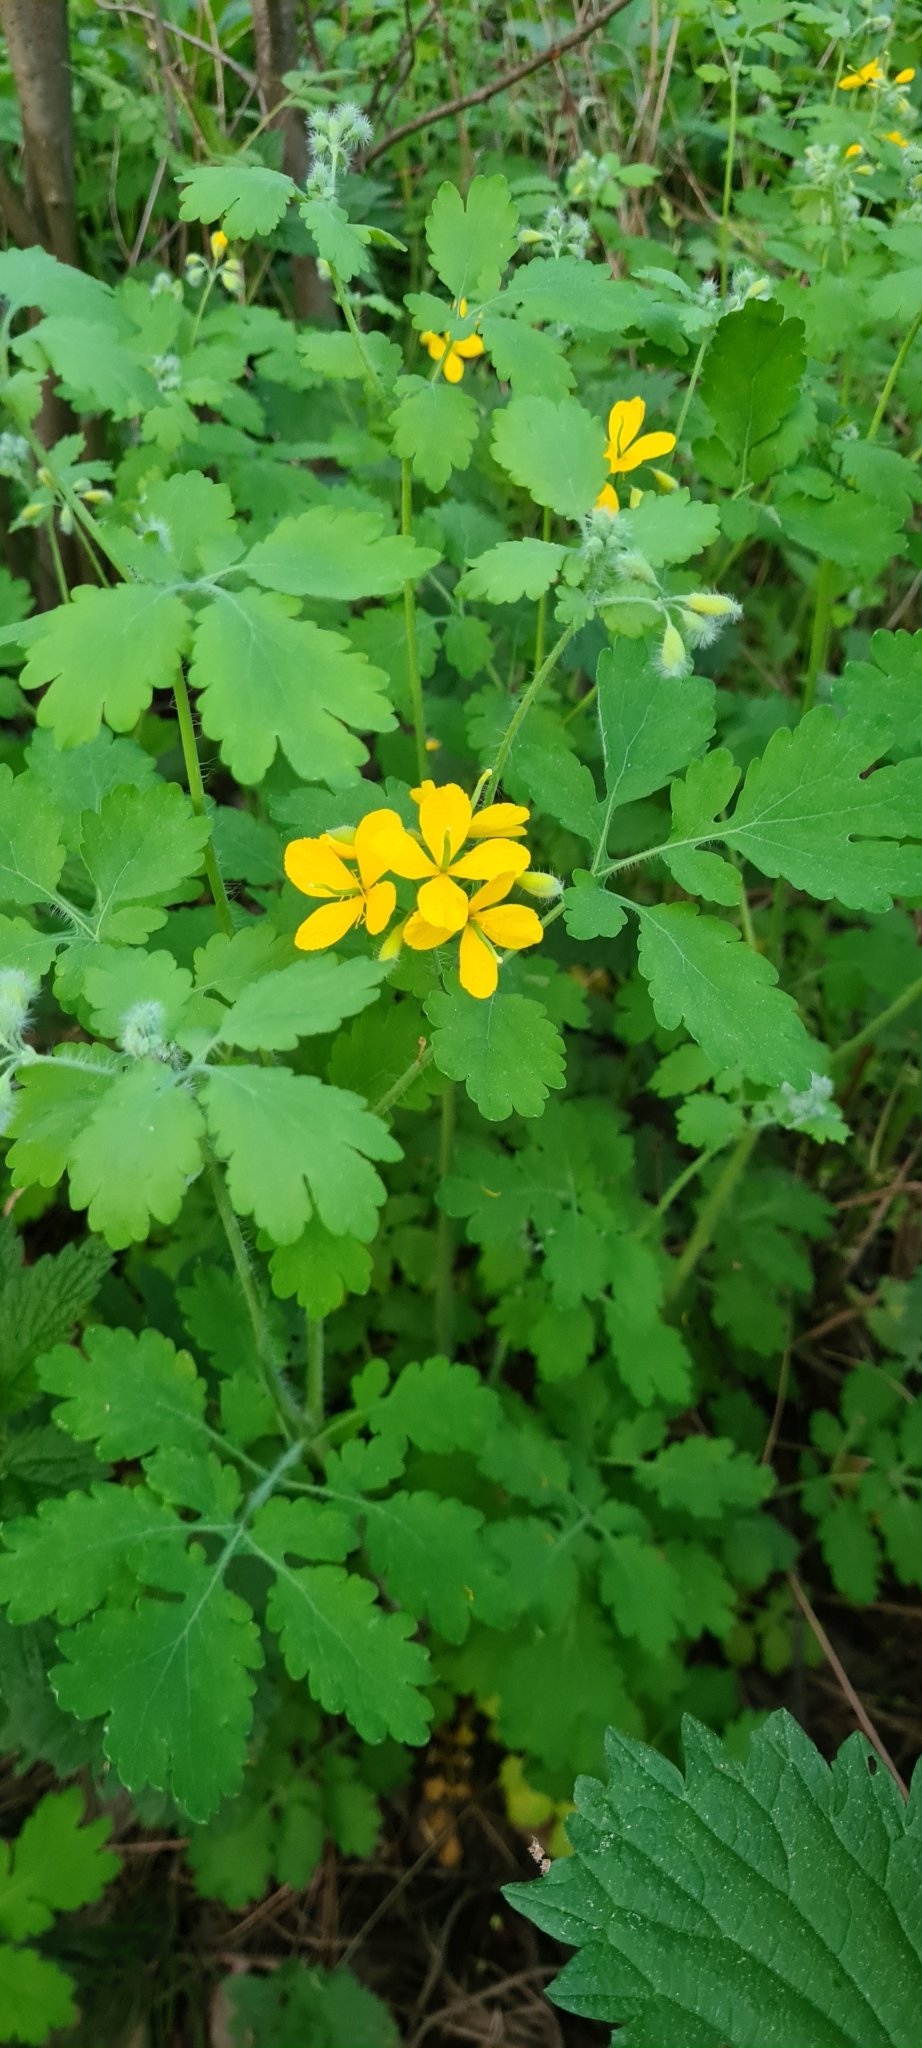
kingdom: Plantae
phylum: Tracheophyta
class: Magnoliopsida
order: Ranunculales
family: Papaveraceae
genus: Chelidonium
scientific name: Chelidonium majus
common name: Greater celandine
